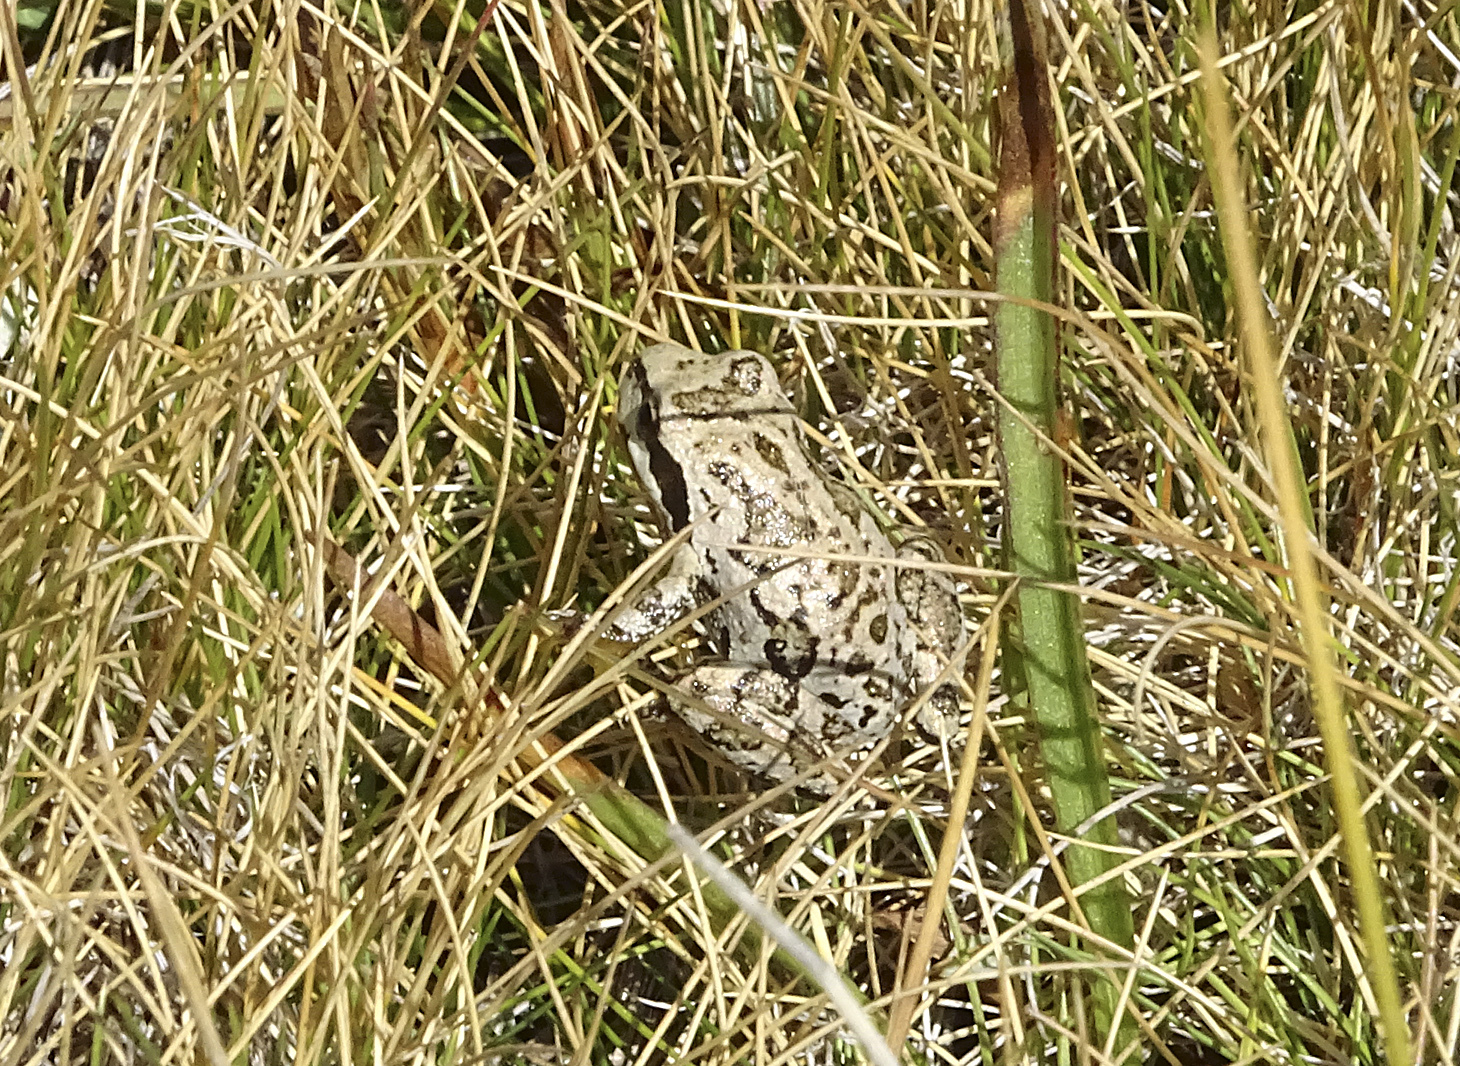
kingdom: Animalia
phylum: Chordata
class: Amphibia
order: Anura
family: Hylidae
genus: Pseudacris
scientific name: Pseudacris regilla
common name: Pacific chorus frog
